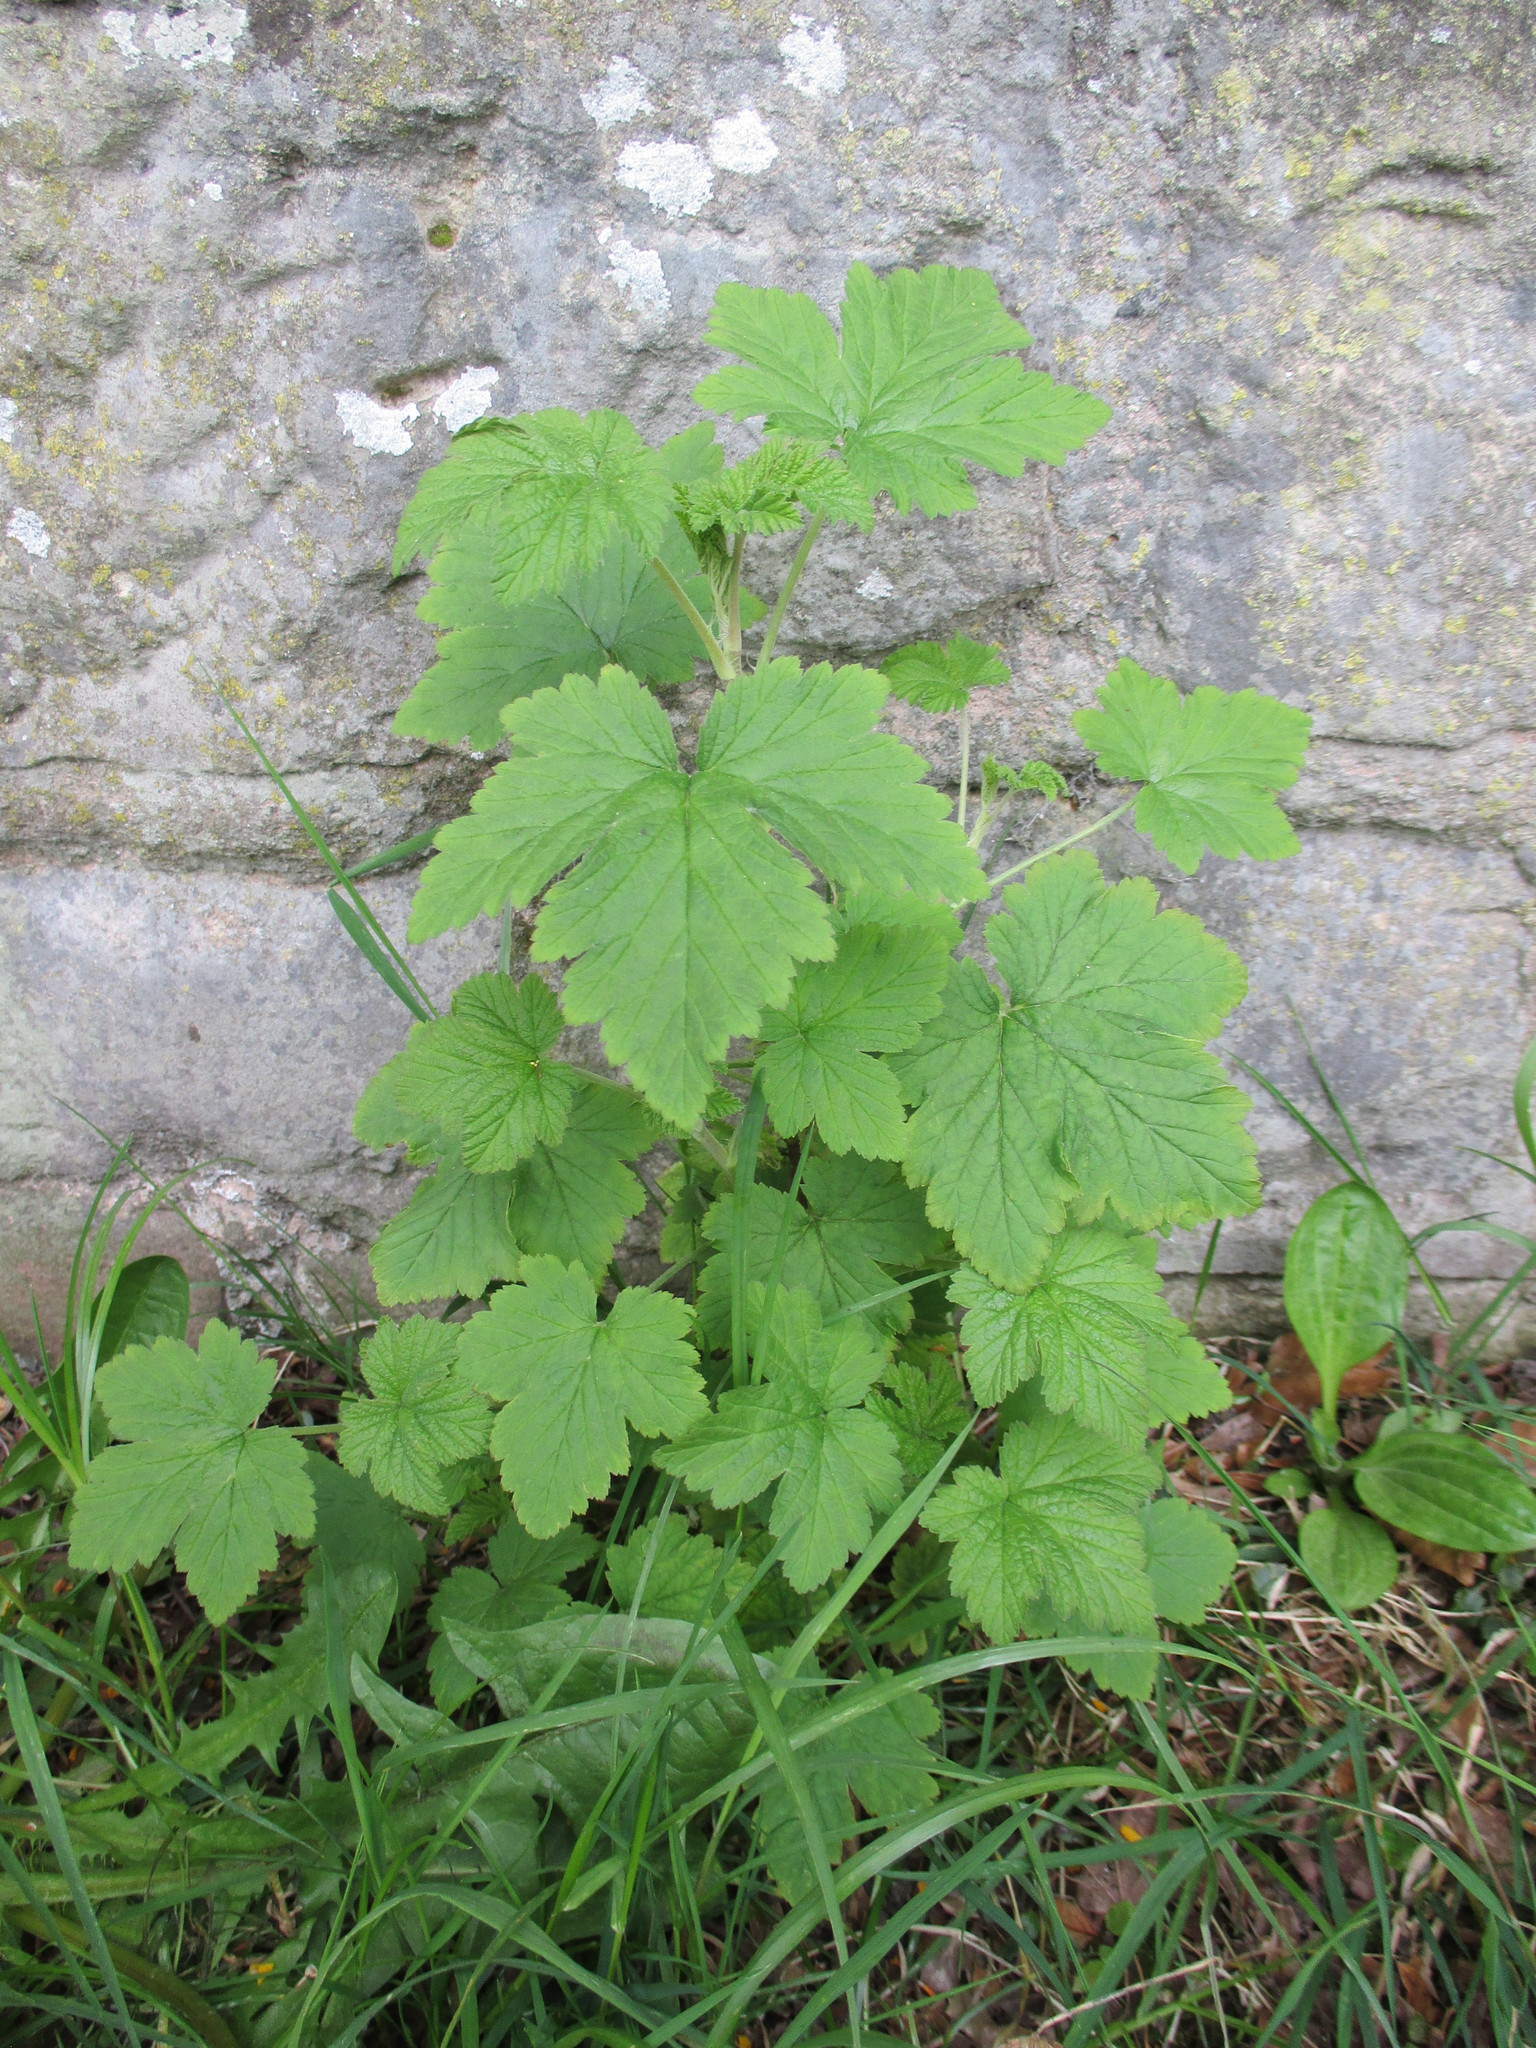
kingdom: Plantae
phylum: Tracheophyta
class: Magnoliopsida
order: Saxifragales
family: Grossulariaceae
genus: Ribes
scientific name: Ribes nigrum
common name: Black currant
